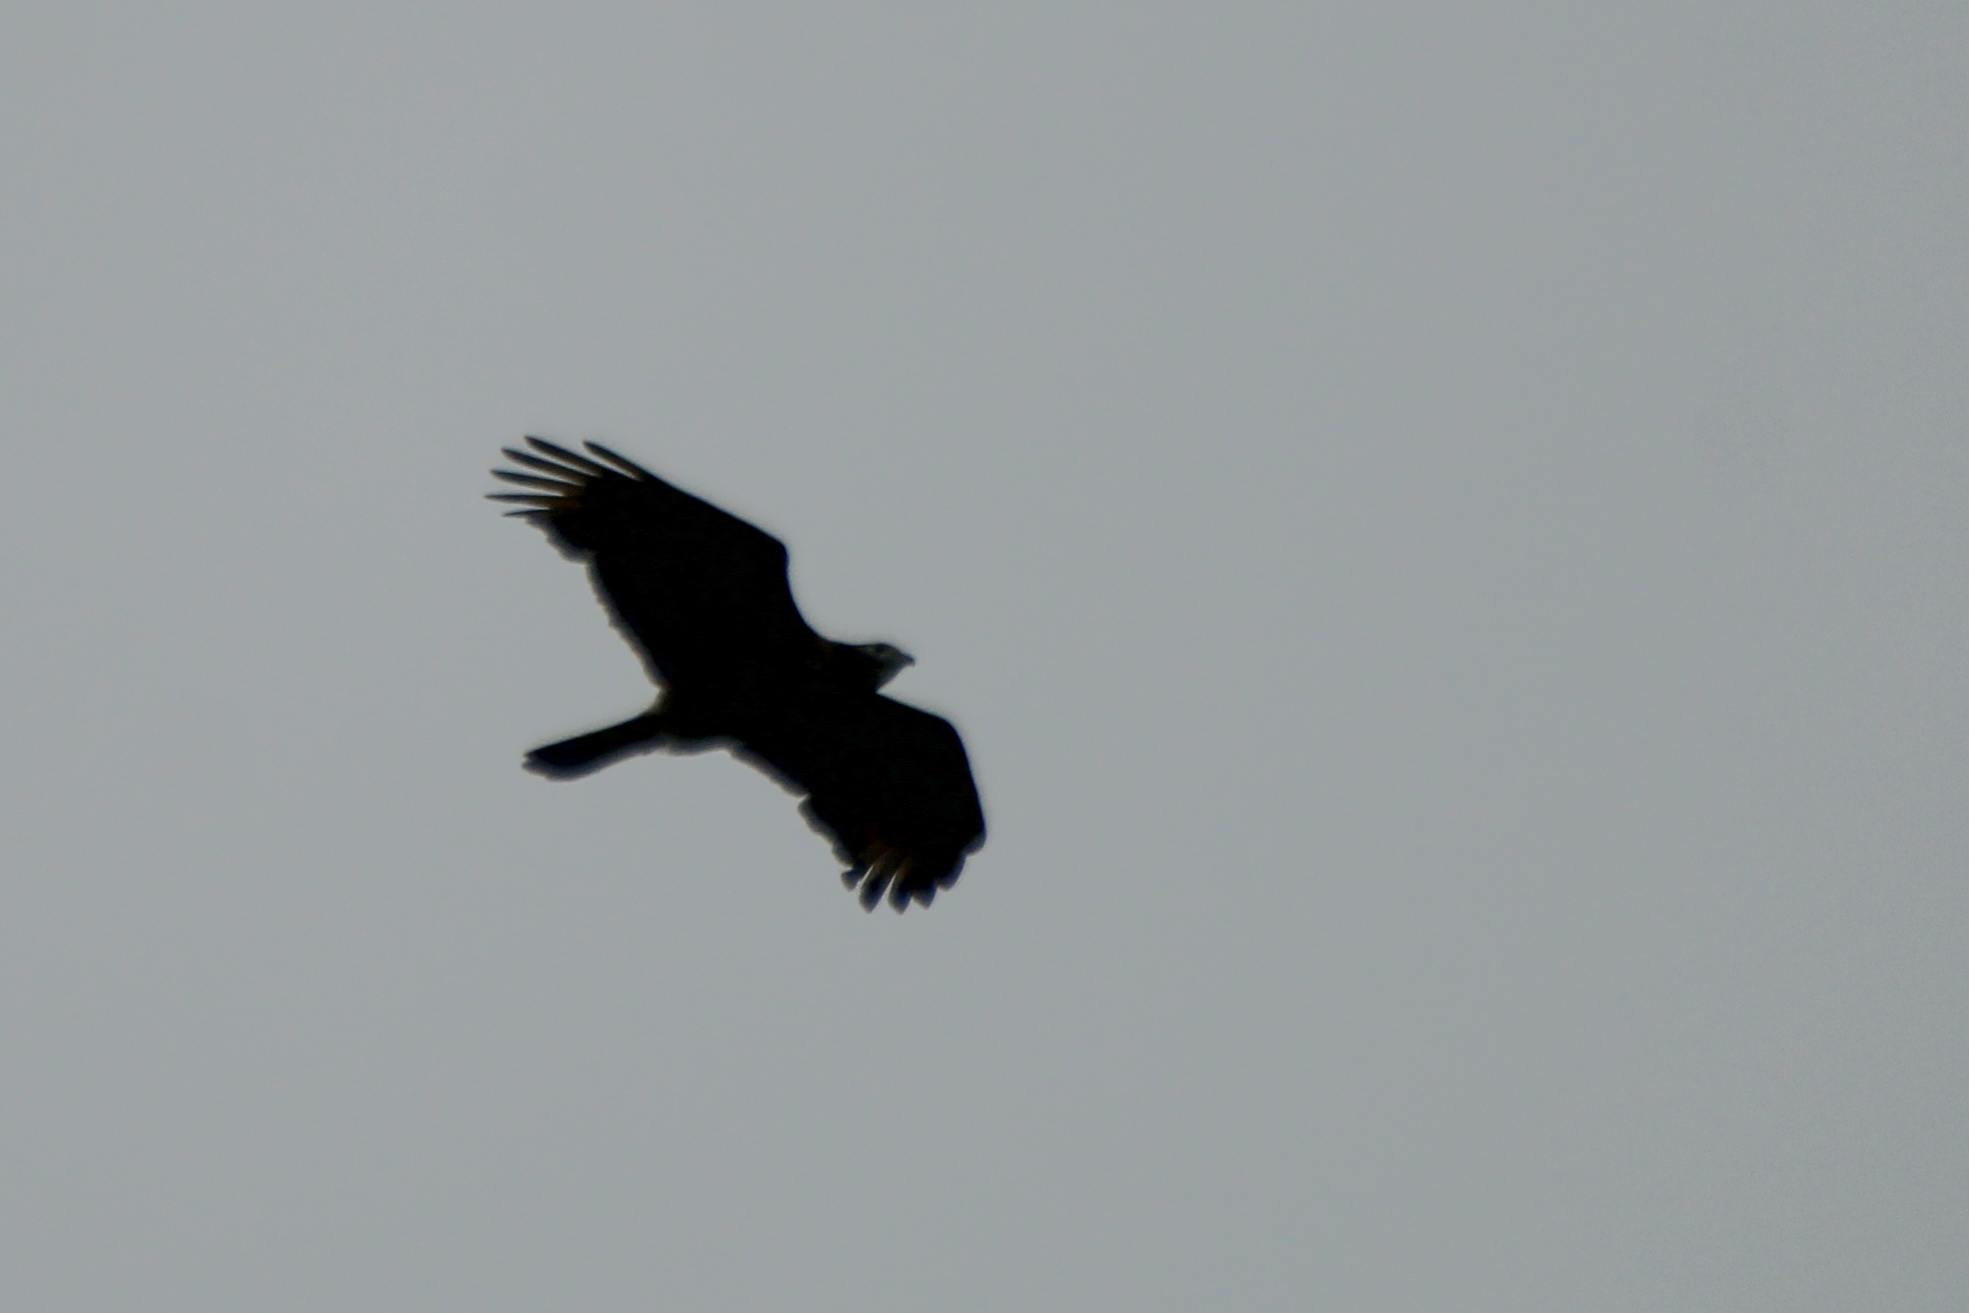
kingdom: Animalia
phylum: Chordata
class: Aves
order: Accipitriformes
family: Accipitridae
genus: Pernis
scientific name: Pernis ptilorhynchus
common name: Crested honey buzzard
